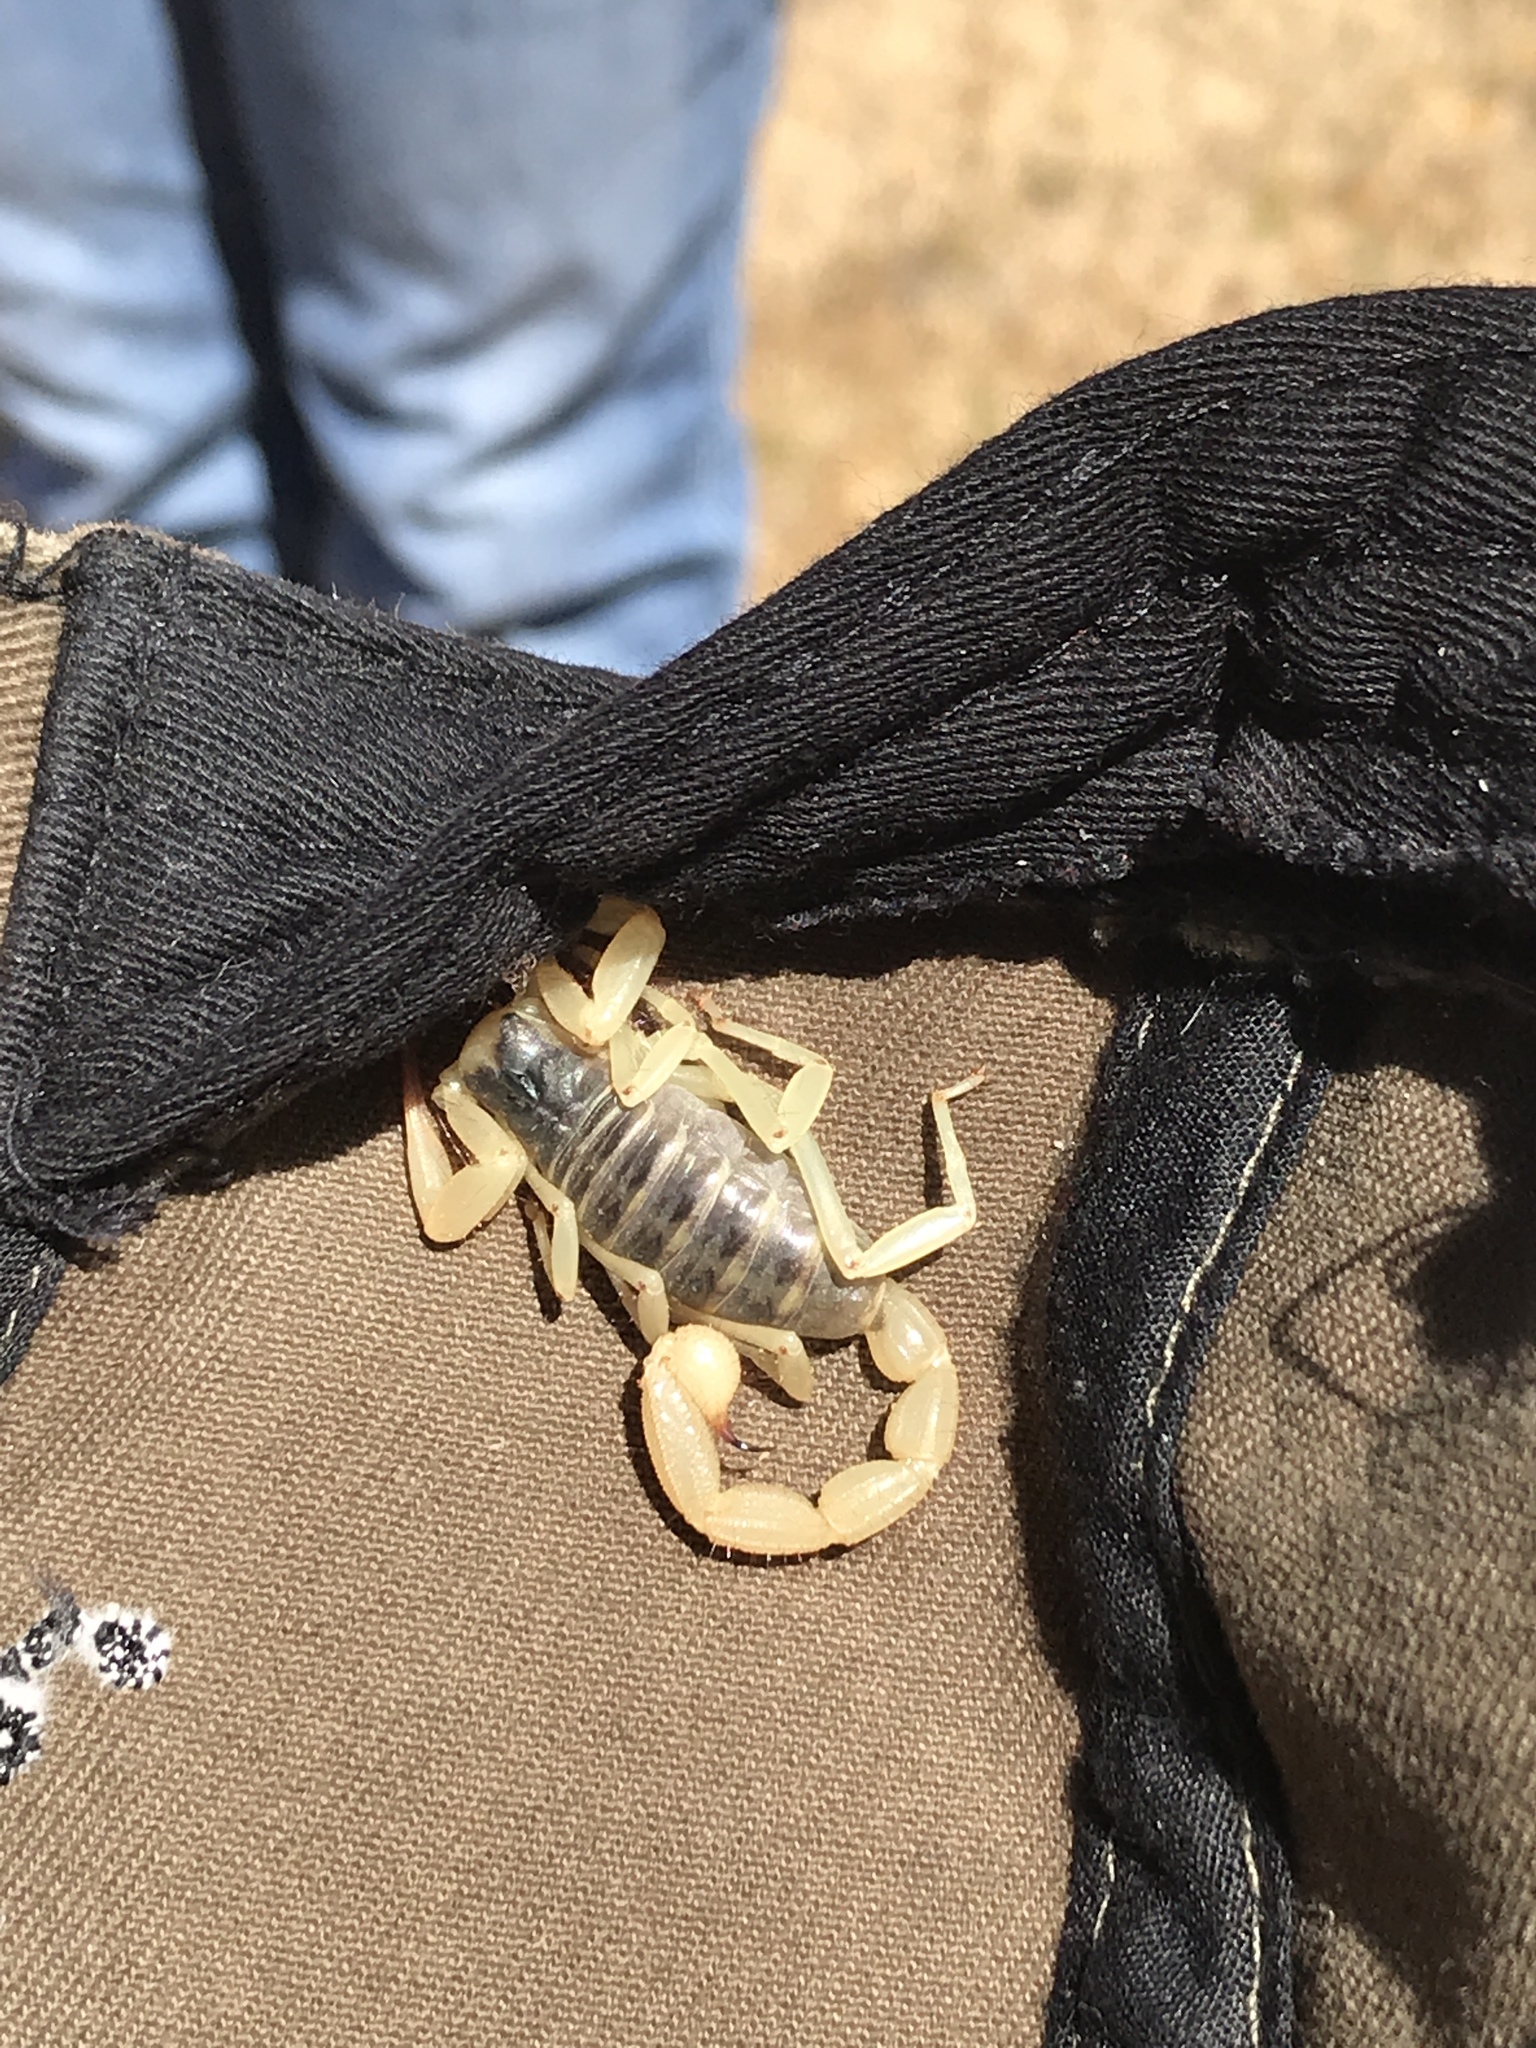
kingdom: Animalia
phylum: Arthropoda
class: Arachnida
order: Scorpiones
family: Hadruridae
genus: Hadrurus
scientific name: Hadrurus obscurus
